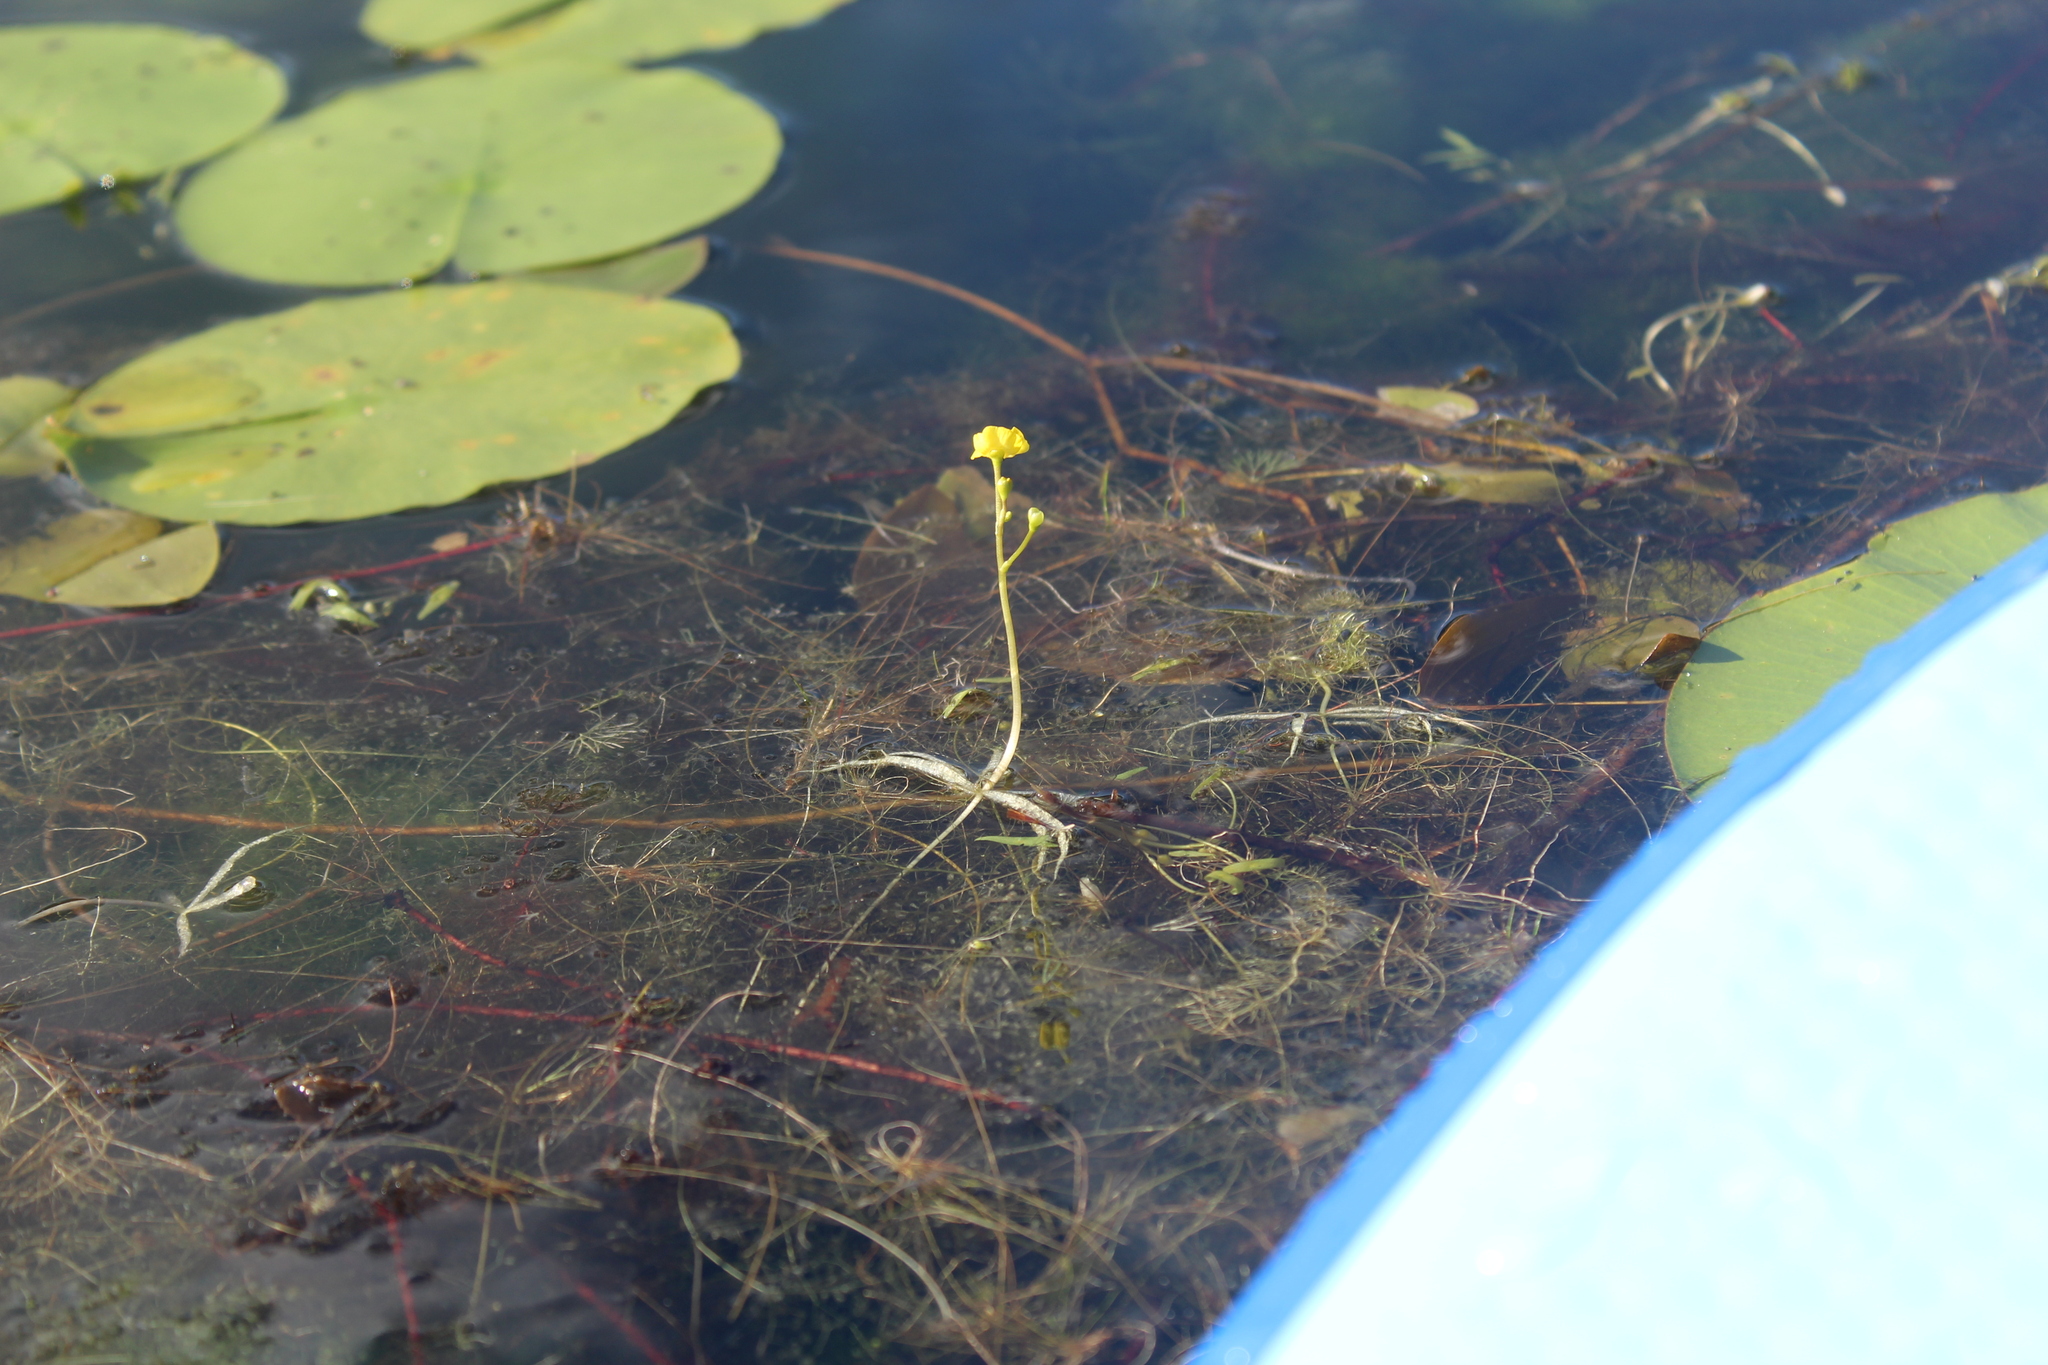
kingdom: Plantae
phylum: Tracheophyta
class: Magnoliopsida
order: Lamiales
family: Lentibulariaceae
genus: Utricularia
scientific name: Utricularia radiata
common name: Floating bladderwort
